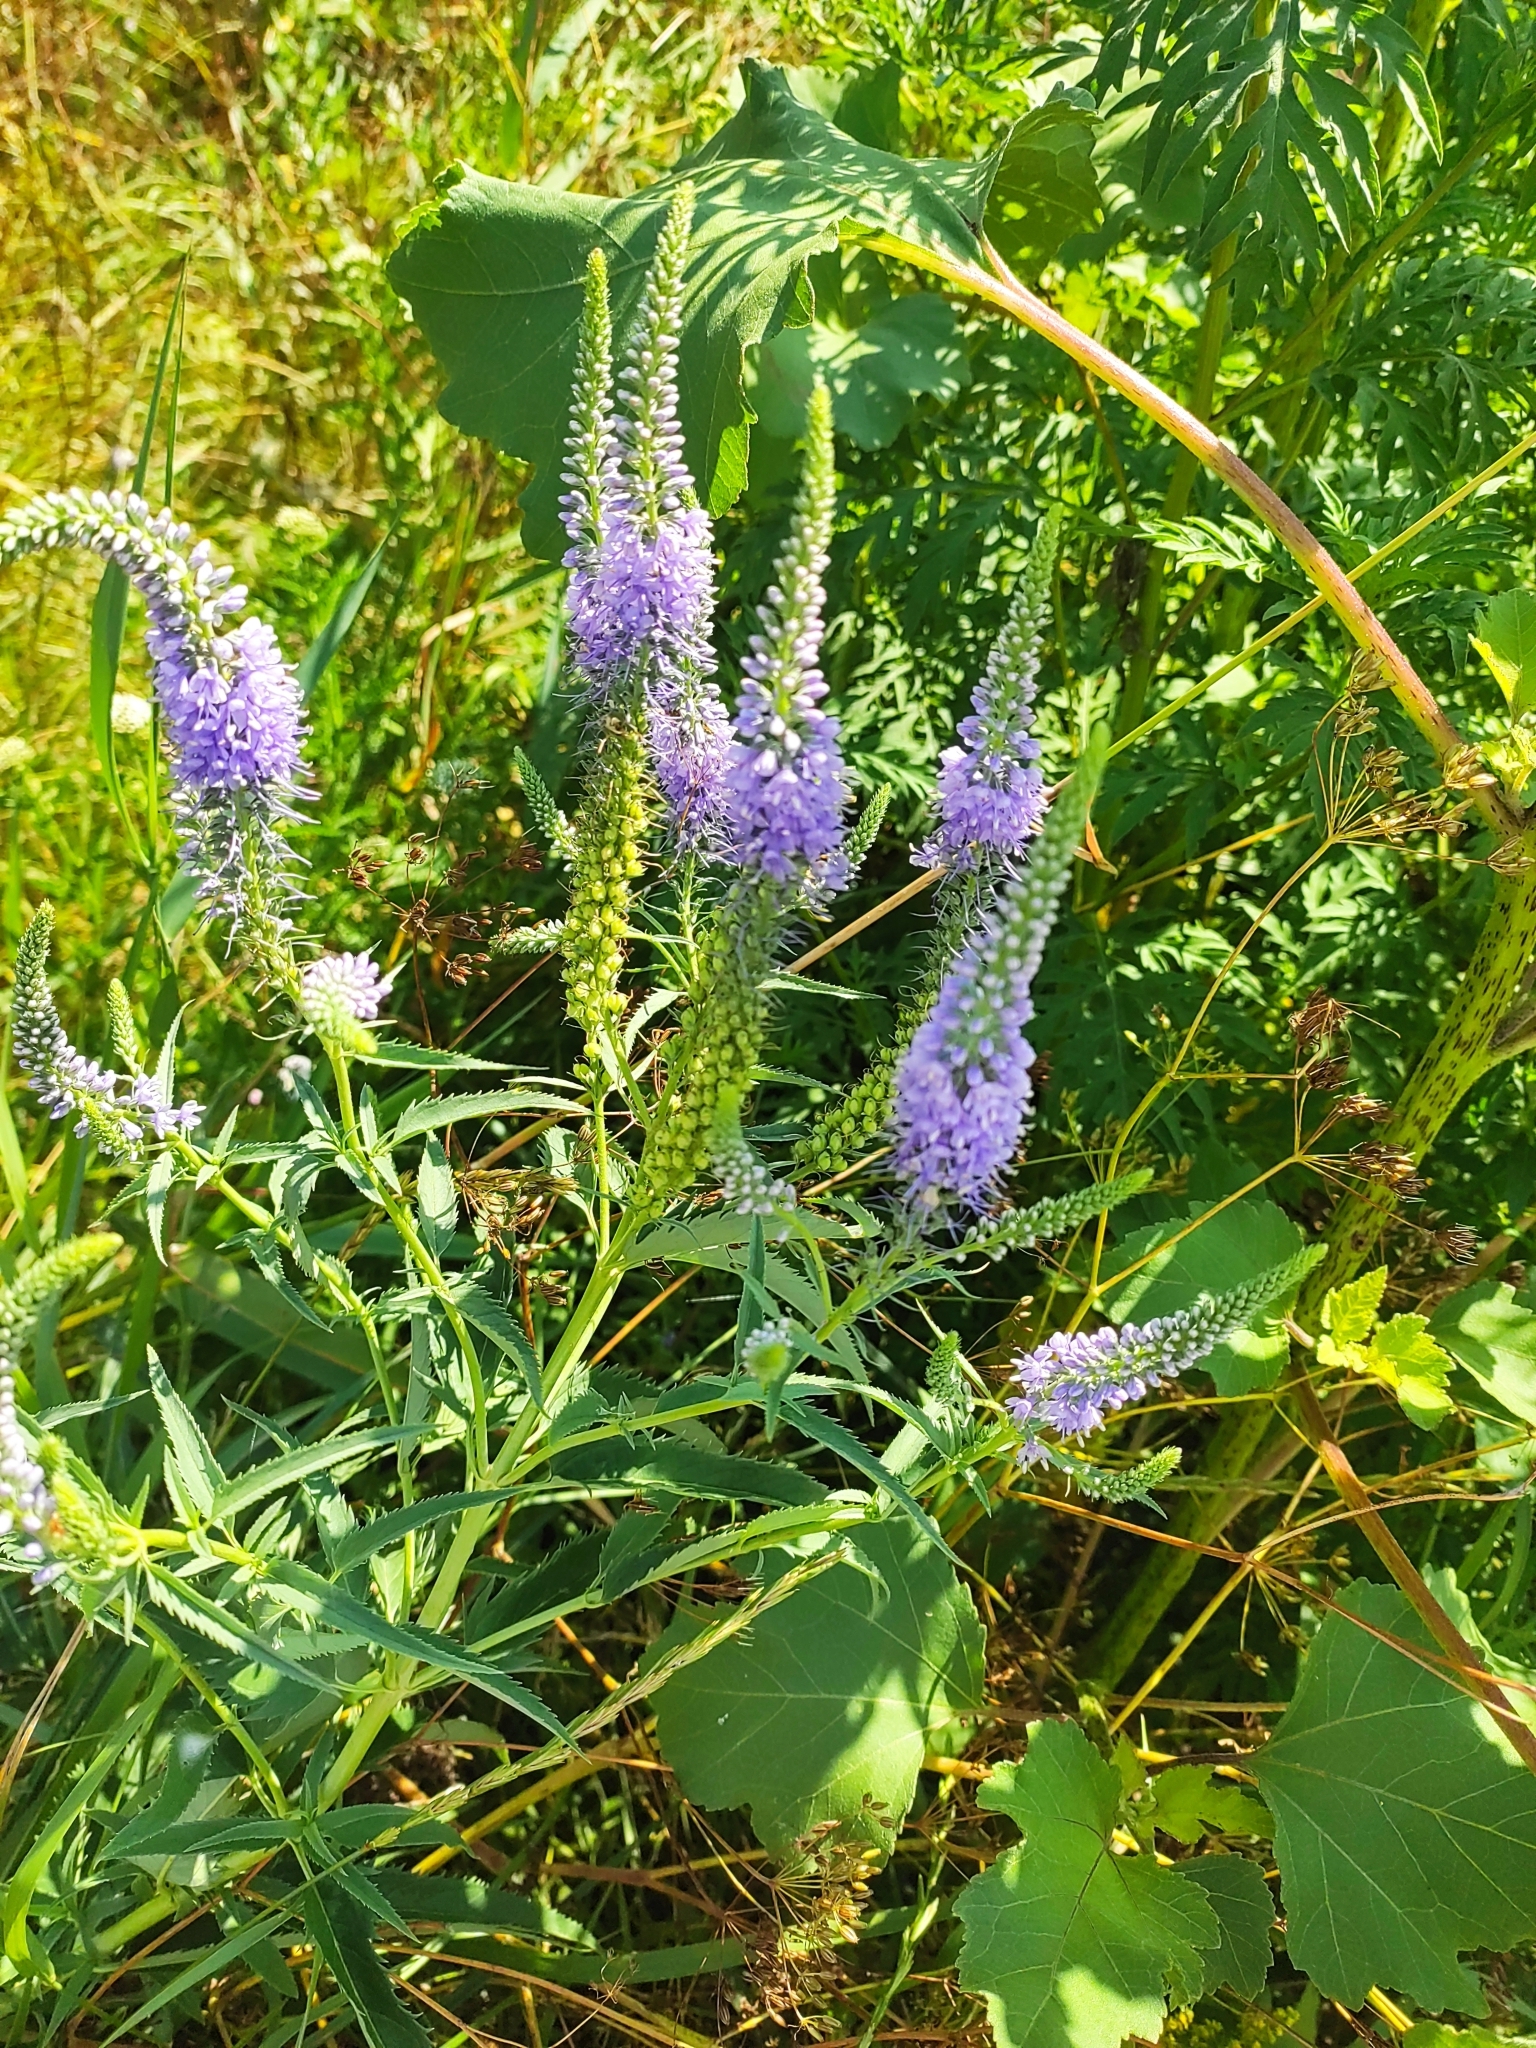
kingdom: Plantae
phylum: Tracheophyta
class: Magnoliopsida
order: Lamiales
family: Plantaginaceae
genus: Veronica
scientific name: Veronica longifolia
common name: Garden speedwell
